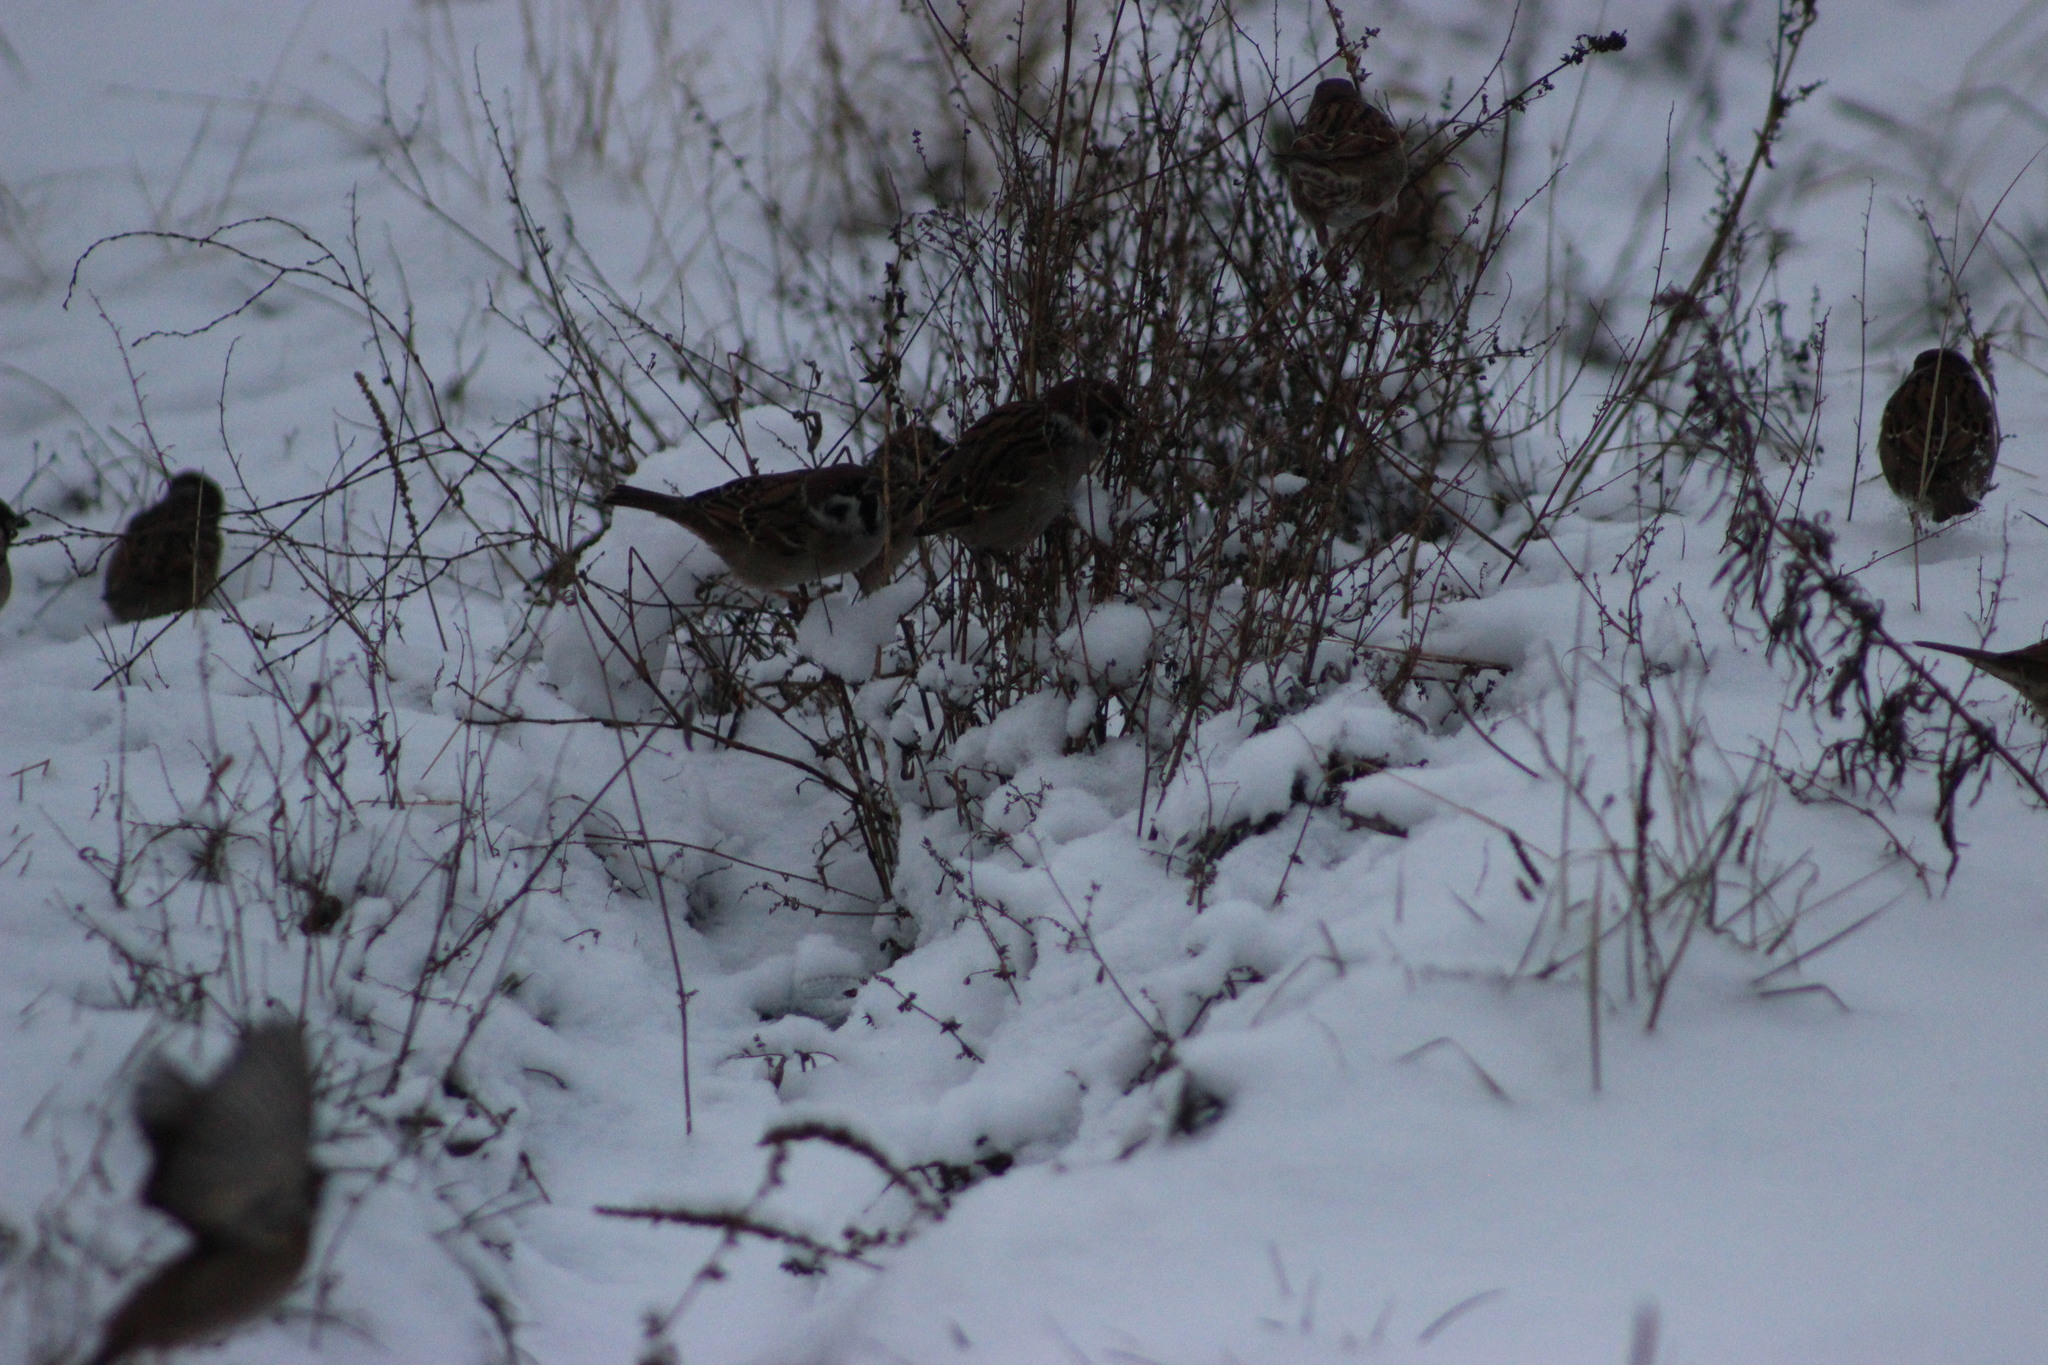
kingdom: Animalia
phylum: Chordata
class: Aves
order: Passeriformes
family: Passeridae
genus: Passer
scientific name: Passer montanus
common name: Eurasian tree sparrow
